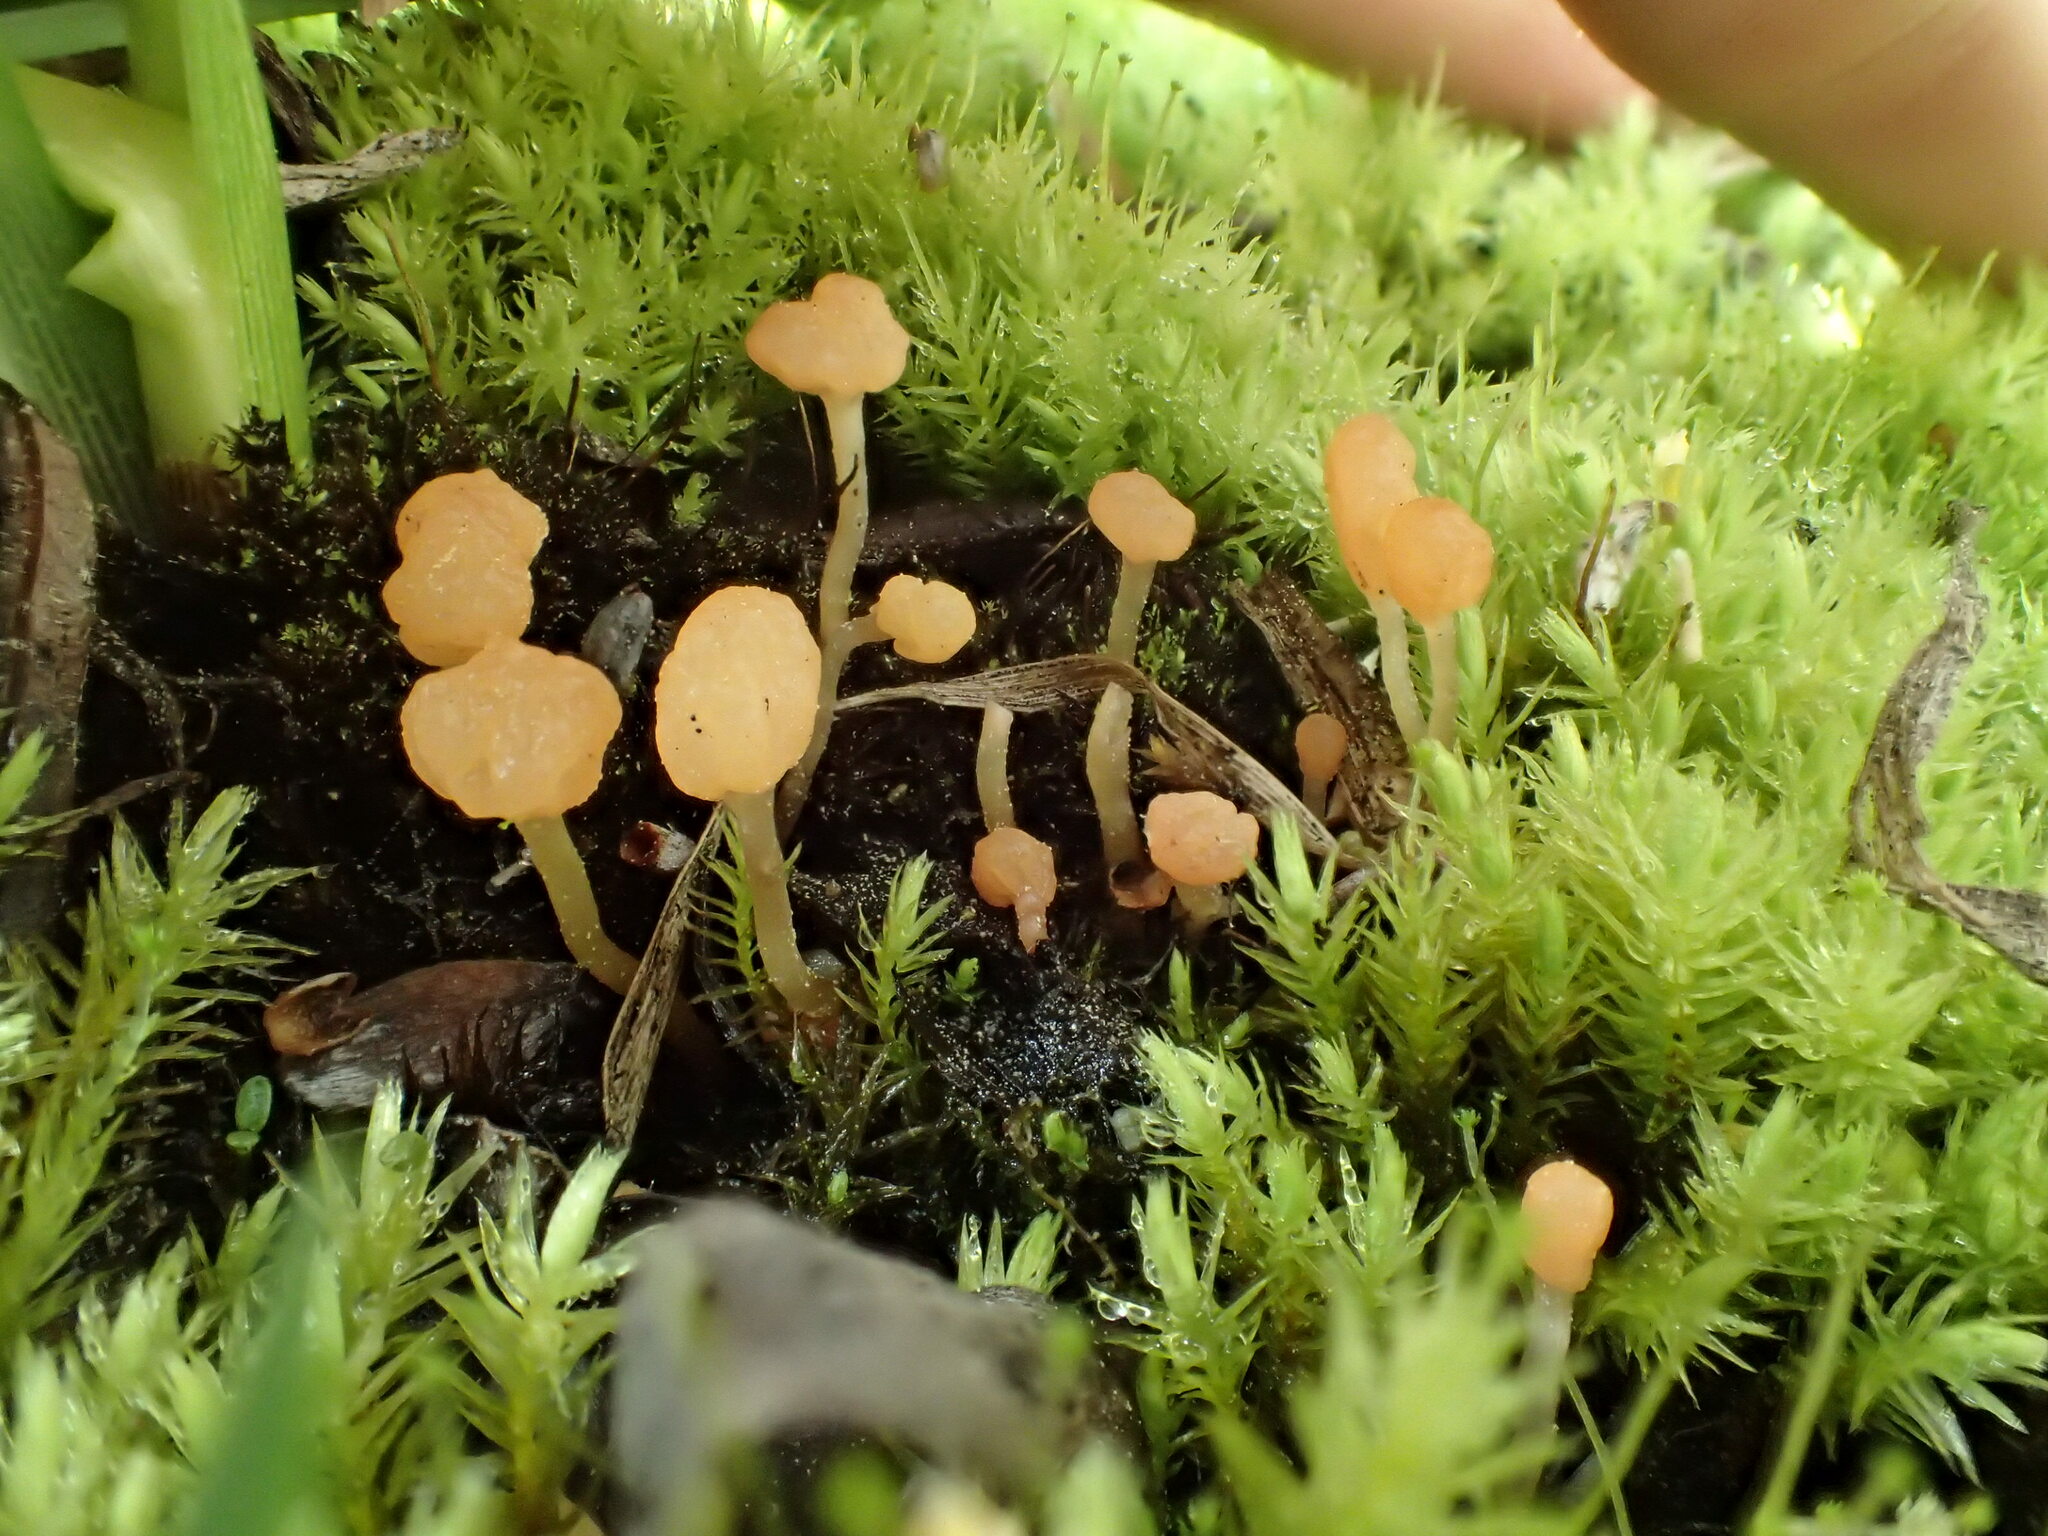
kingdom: Fungi
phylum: Ascomycota
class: Leotiomycetes
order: Helotiales
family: Bryoglossaceae
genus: Bryoglossum
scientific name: Bryoglossum gracile
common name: Fringed sawgill
